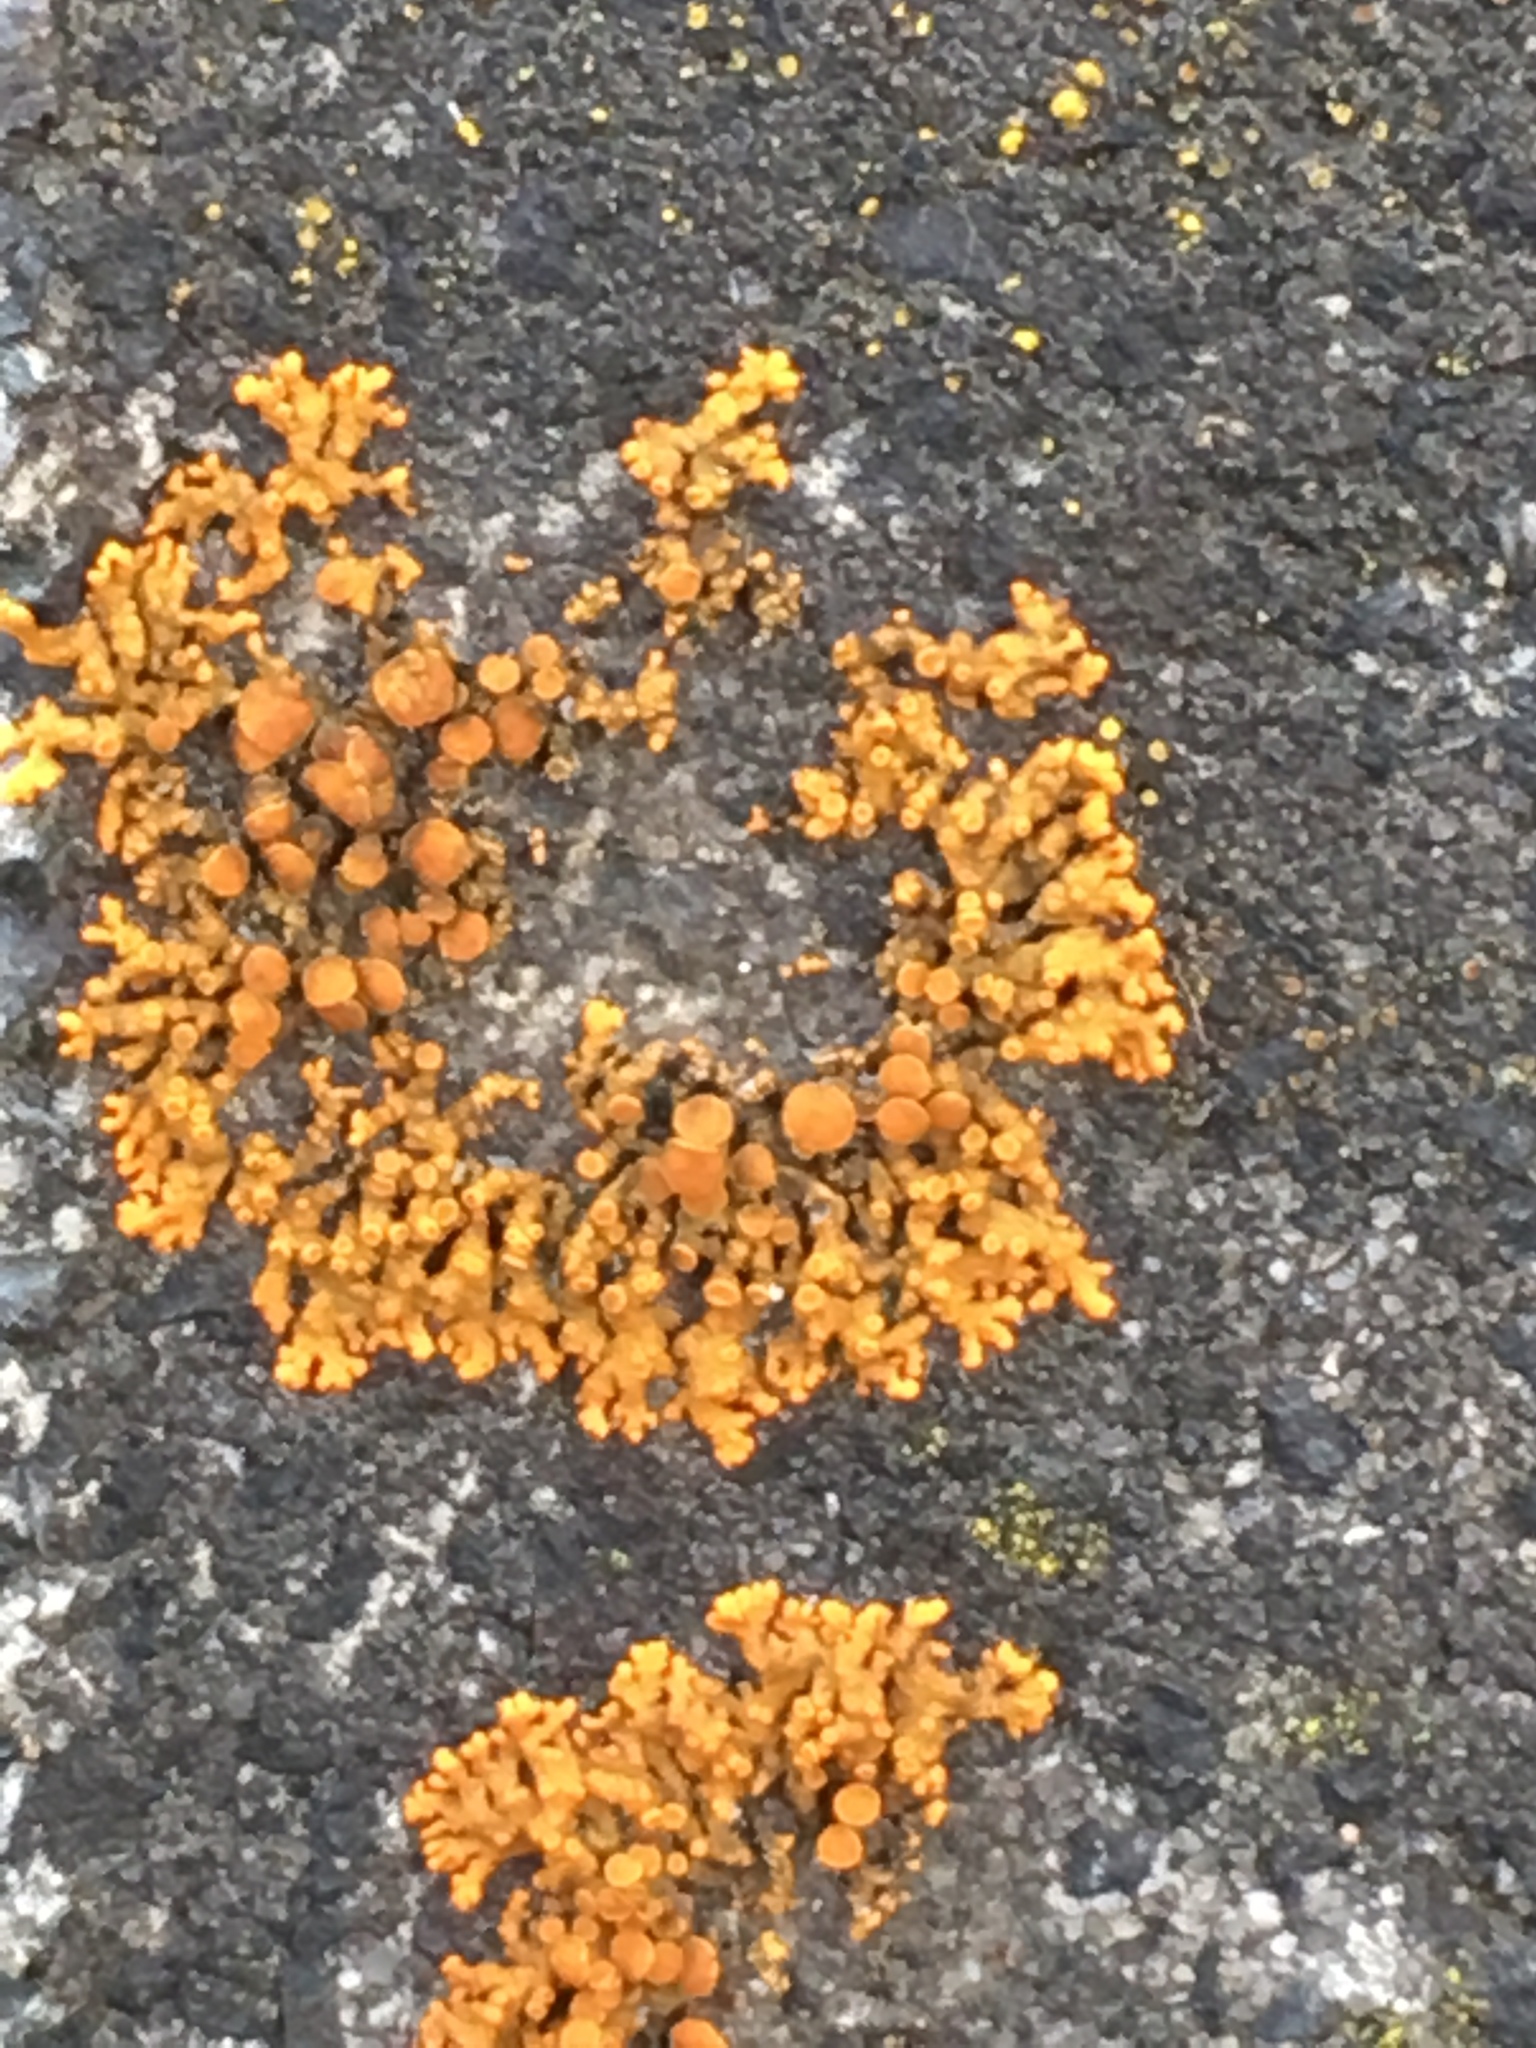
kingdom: Fungi
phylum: Ascomycota
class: Lecanoromycetes
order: Teloschistales
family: Teloschistaceae
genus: Xanthoria
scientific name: Xanthoria elegans
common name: Elegant sunburst lichen
